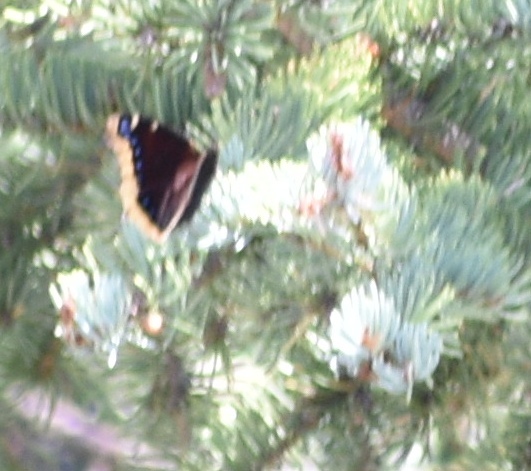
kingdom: Animalia
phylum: Arthropoda
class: Insecta
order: Lepidoptera
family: Nymphalidae
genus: Nymphalis
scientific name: Nymphalis antiopa
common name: Camberwell beauty
